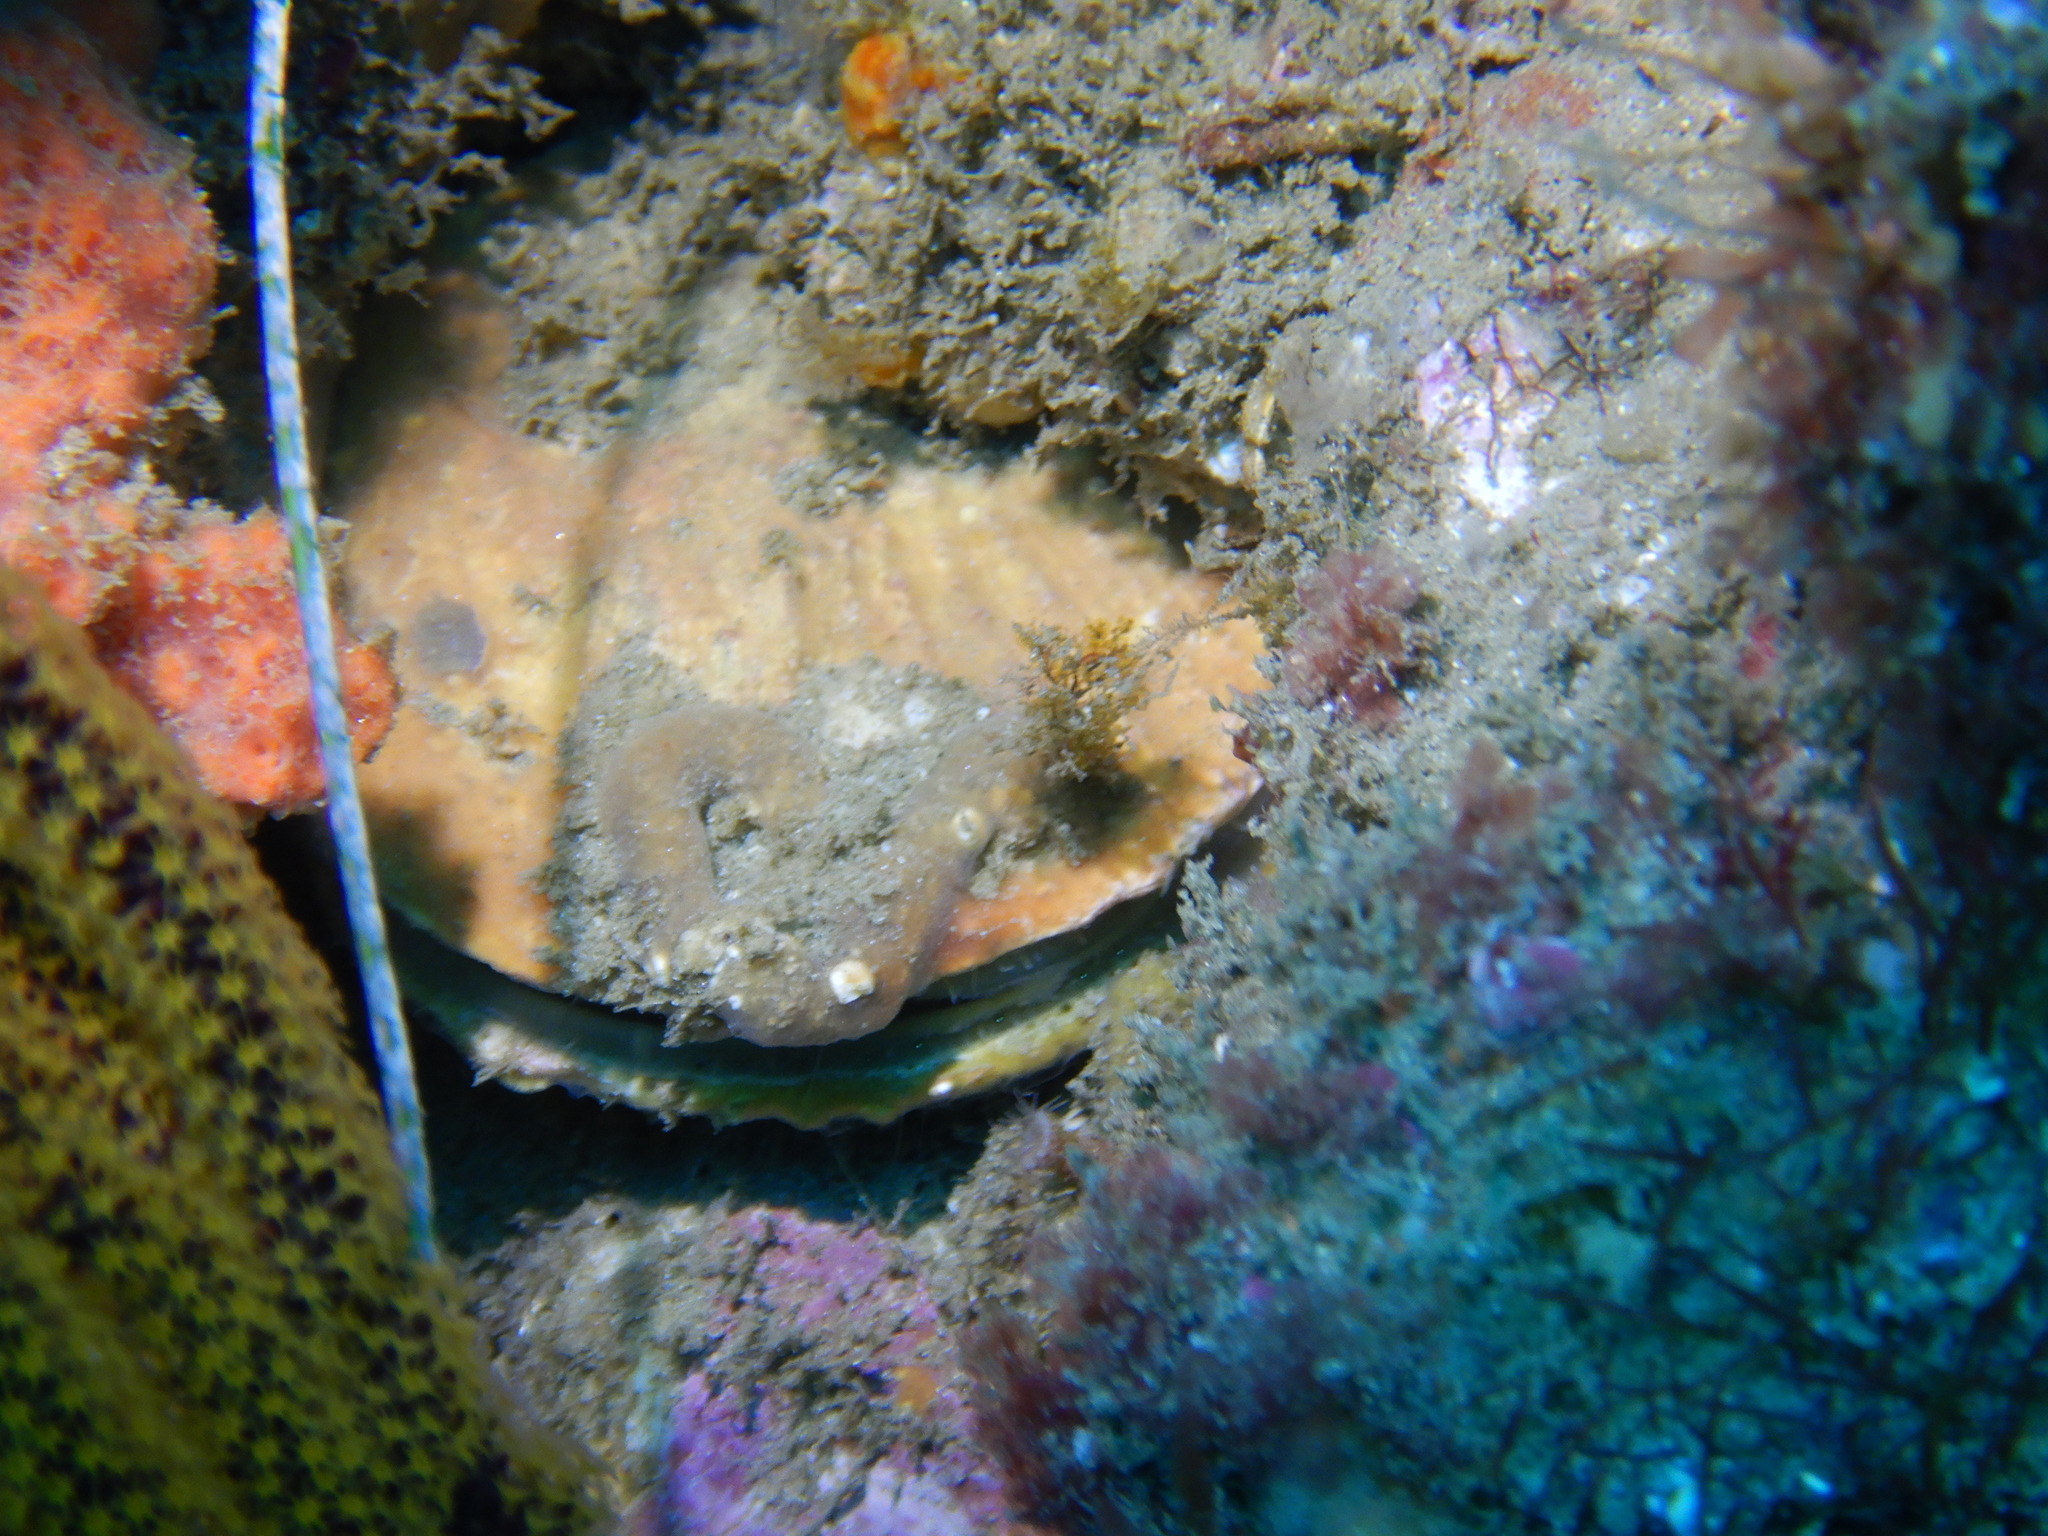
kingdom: Animalia
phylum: Mollusca
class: Bivalvia
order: Pectinida
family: Pectinidae
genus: Crassadoma
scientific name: Crassadoma gigantea
